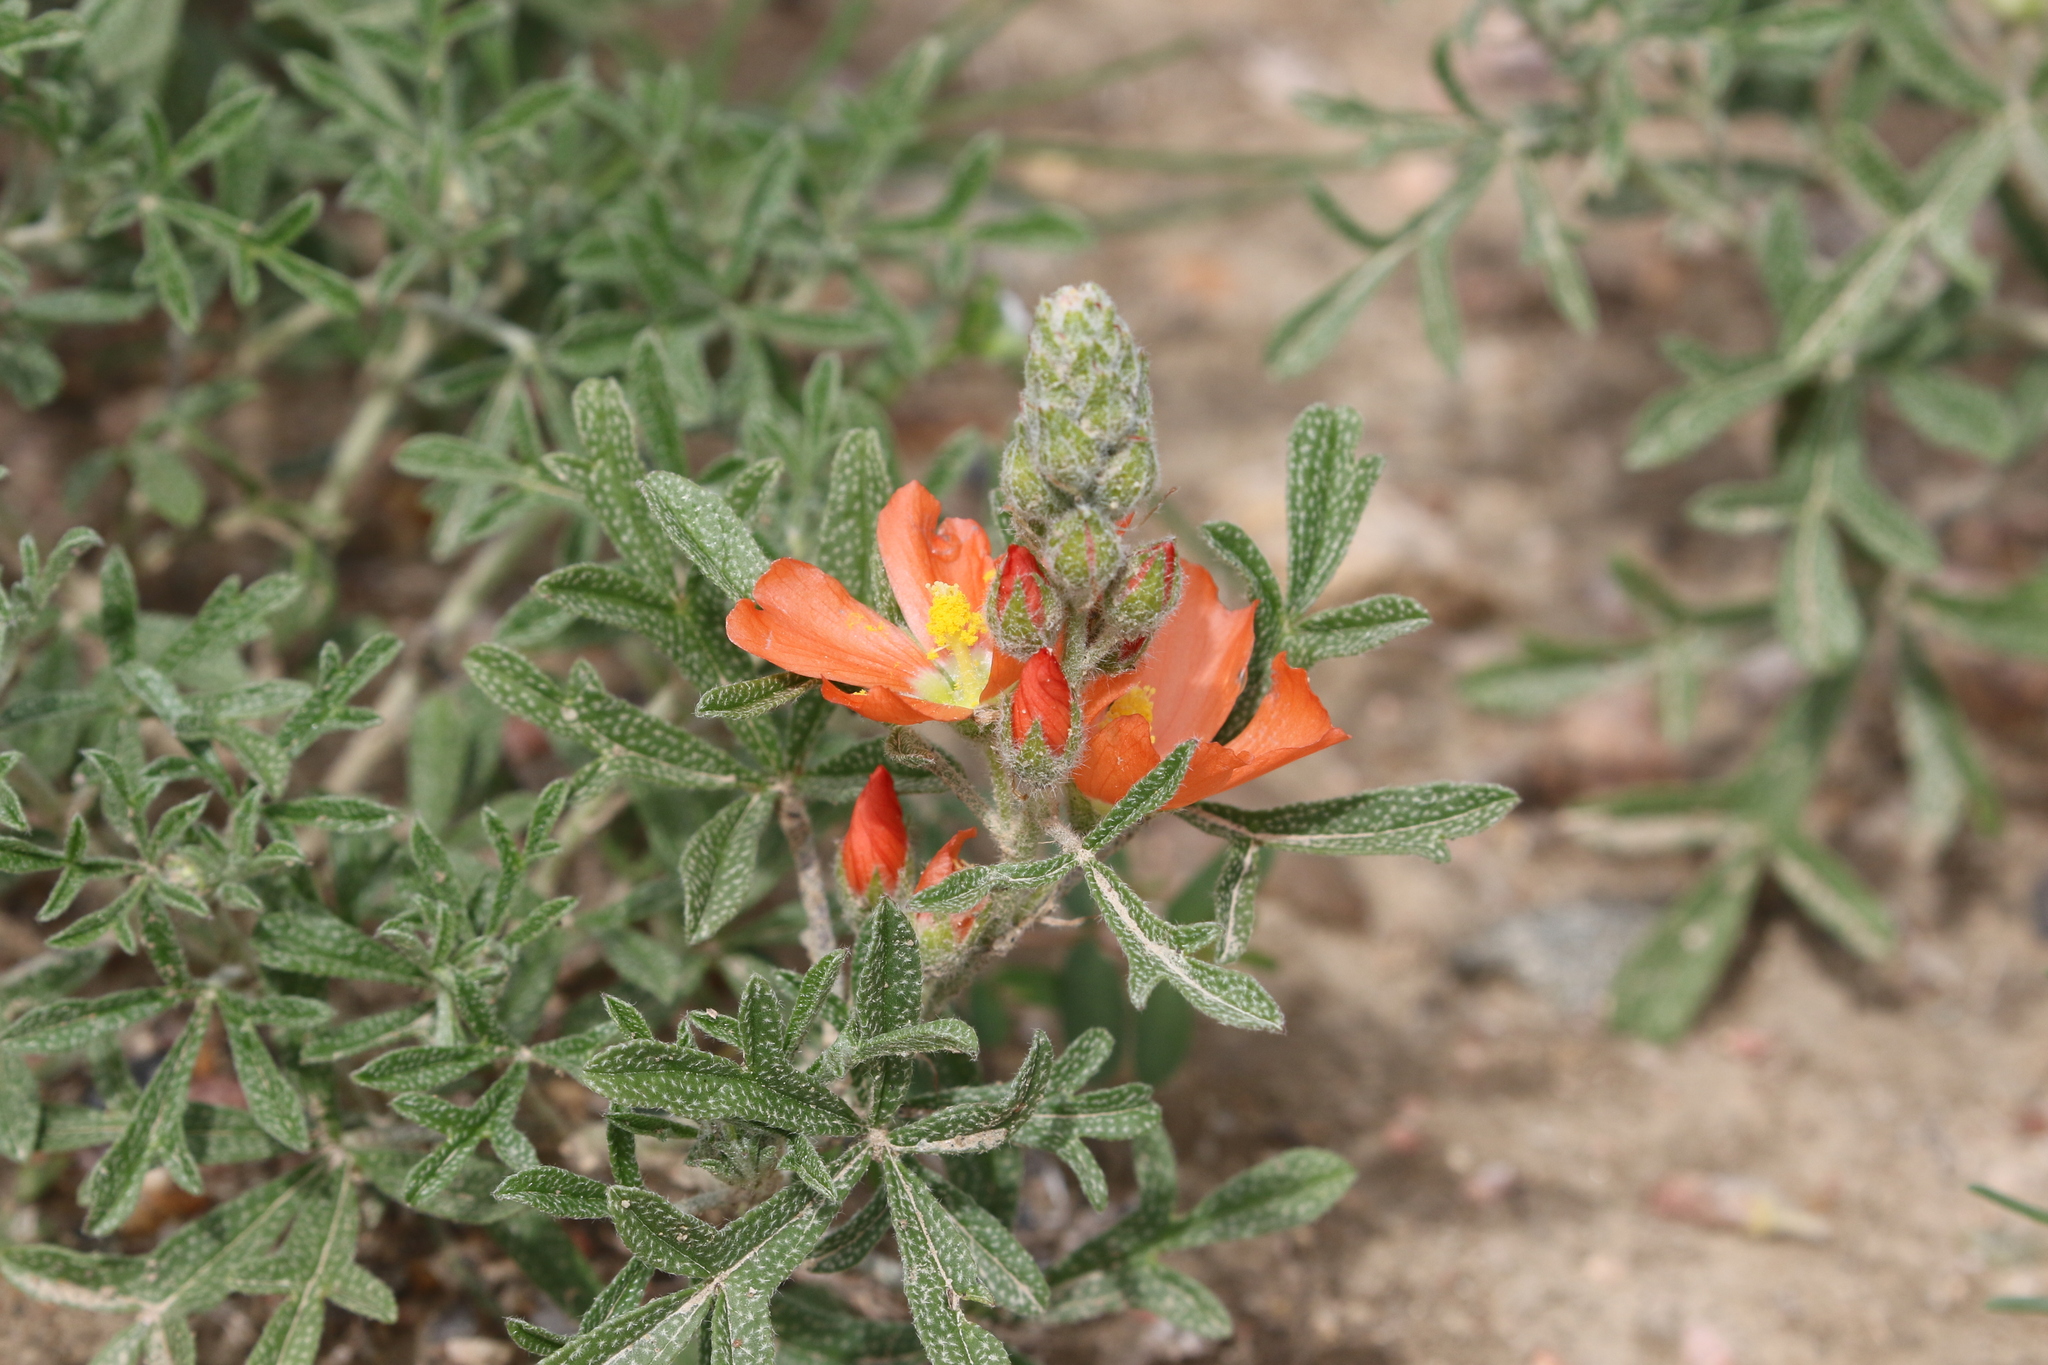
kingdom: Plantae
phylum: Tracheophyta
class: Magnoliopsida
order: Malvales
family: Malvaceae
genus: Sphaeralcea
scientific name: Sphaeralcea coccinea
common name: Moss-rose
